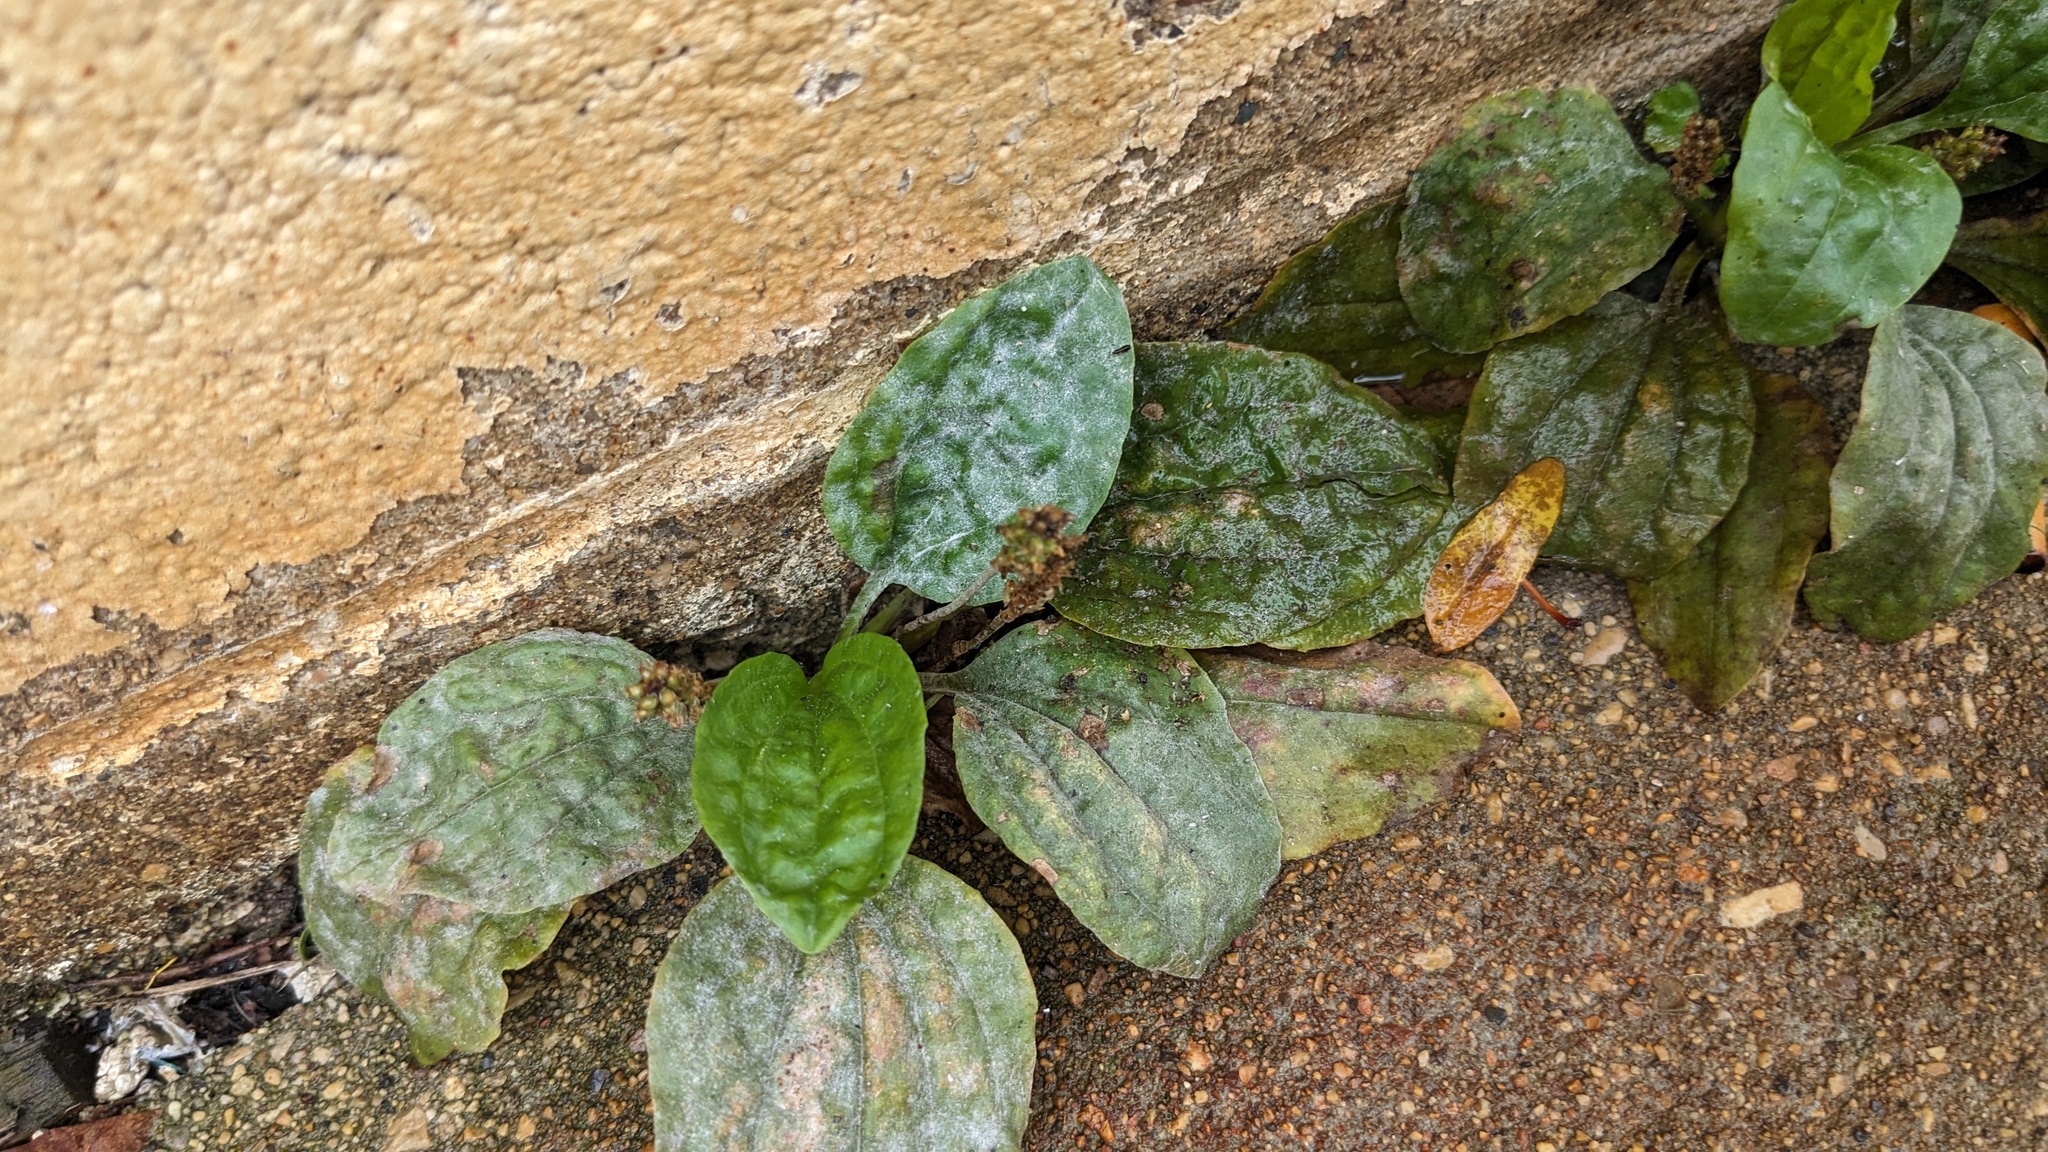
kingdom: Fungi
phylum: Ascomycota
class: Leotiomycetes
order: Helotiales
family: Erysiphaceae
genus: Golovinomyces
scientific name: Golovinomyces sordidus
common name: Plantain mildew
